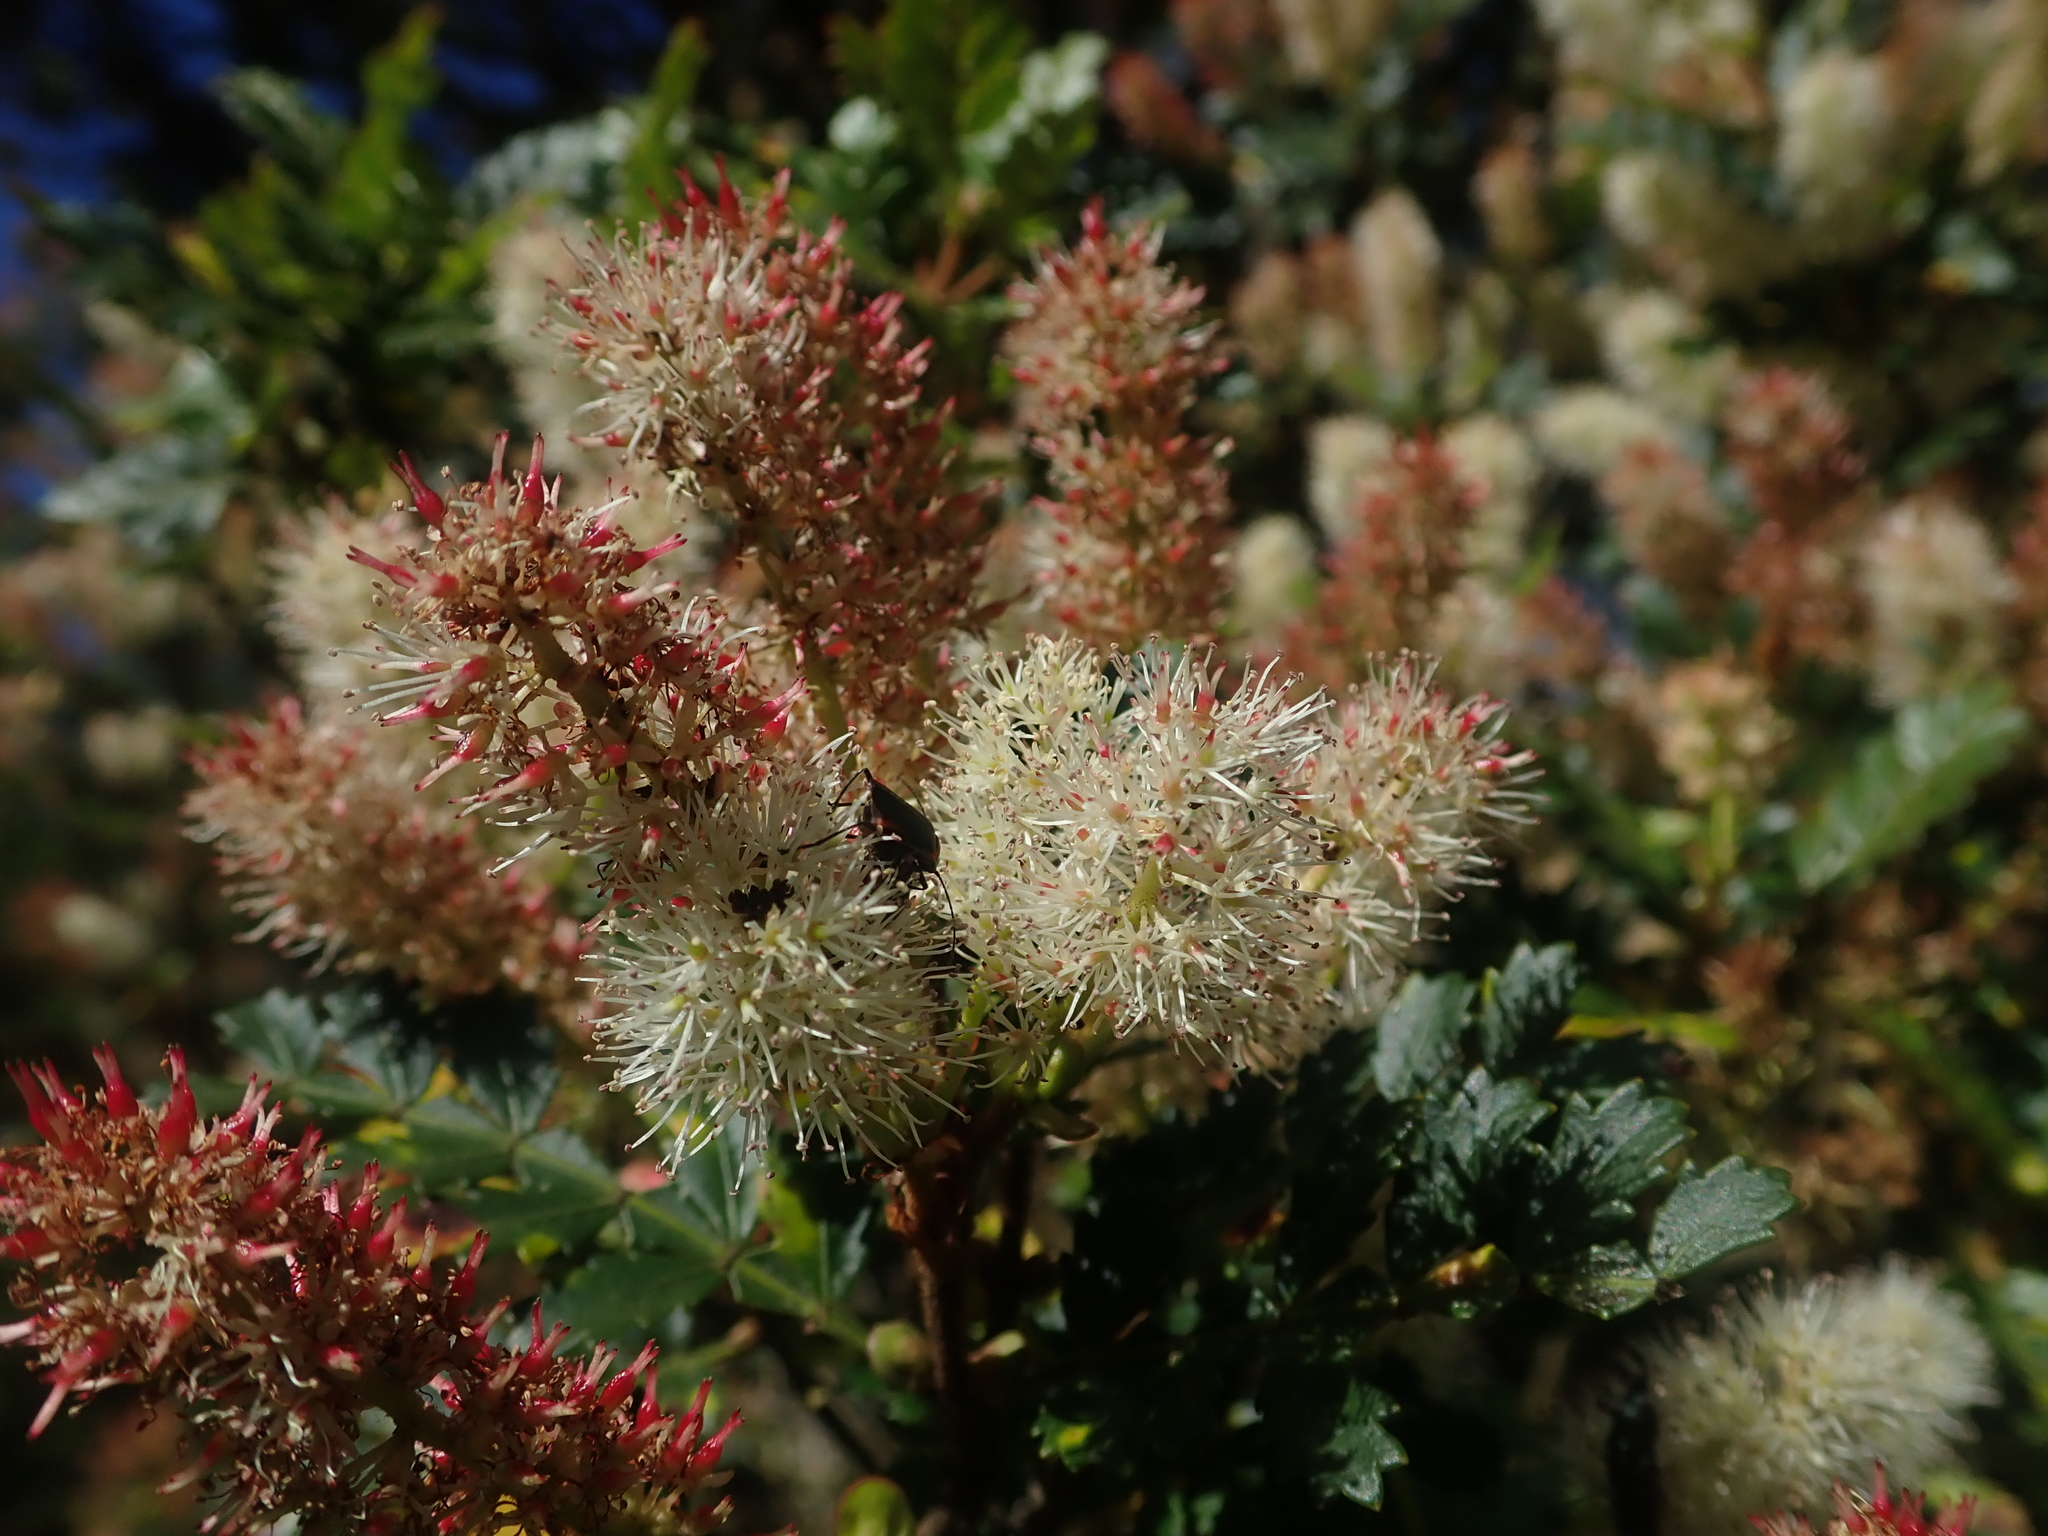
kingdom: Plantae
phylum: Tracheophyta
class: Magnoliopsida
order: Oxalidales
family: Cunoniaceae
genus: Weinmannia
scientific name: Weinmannia trichosperma
